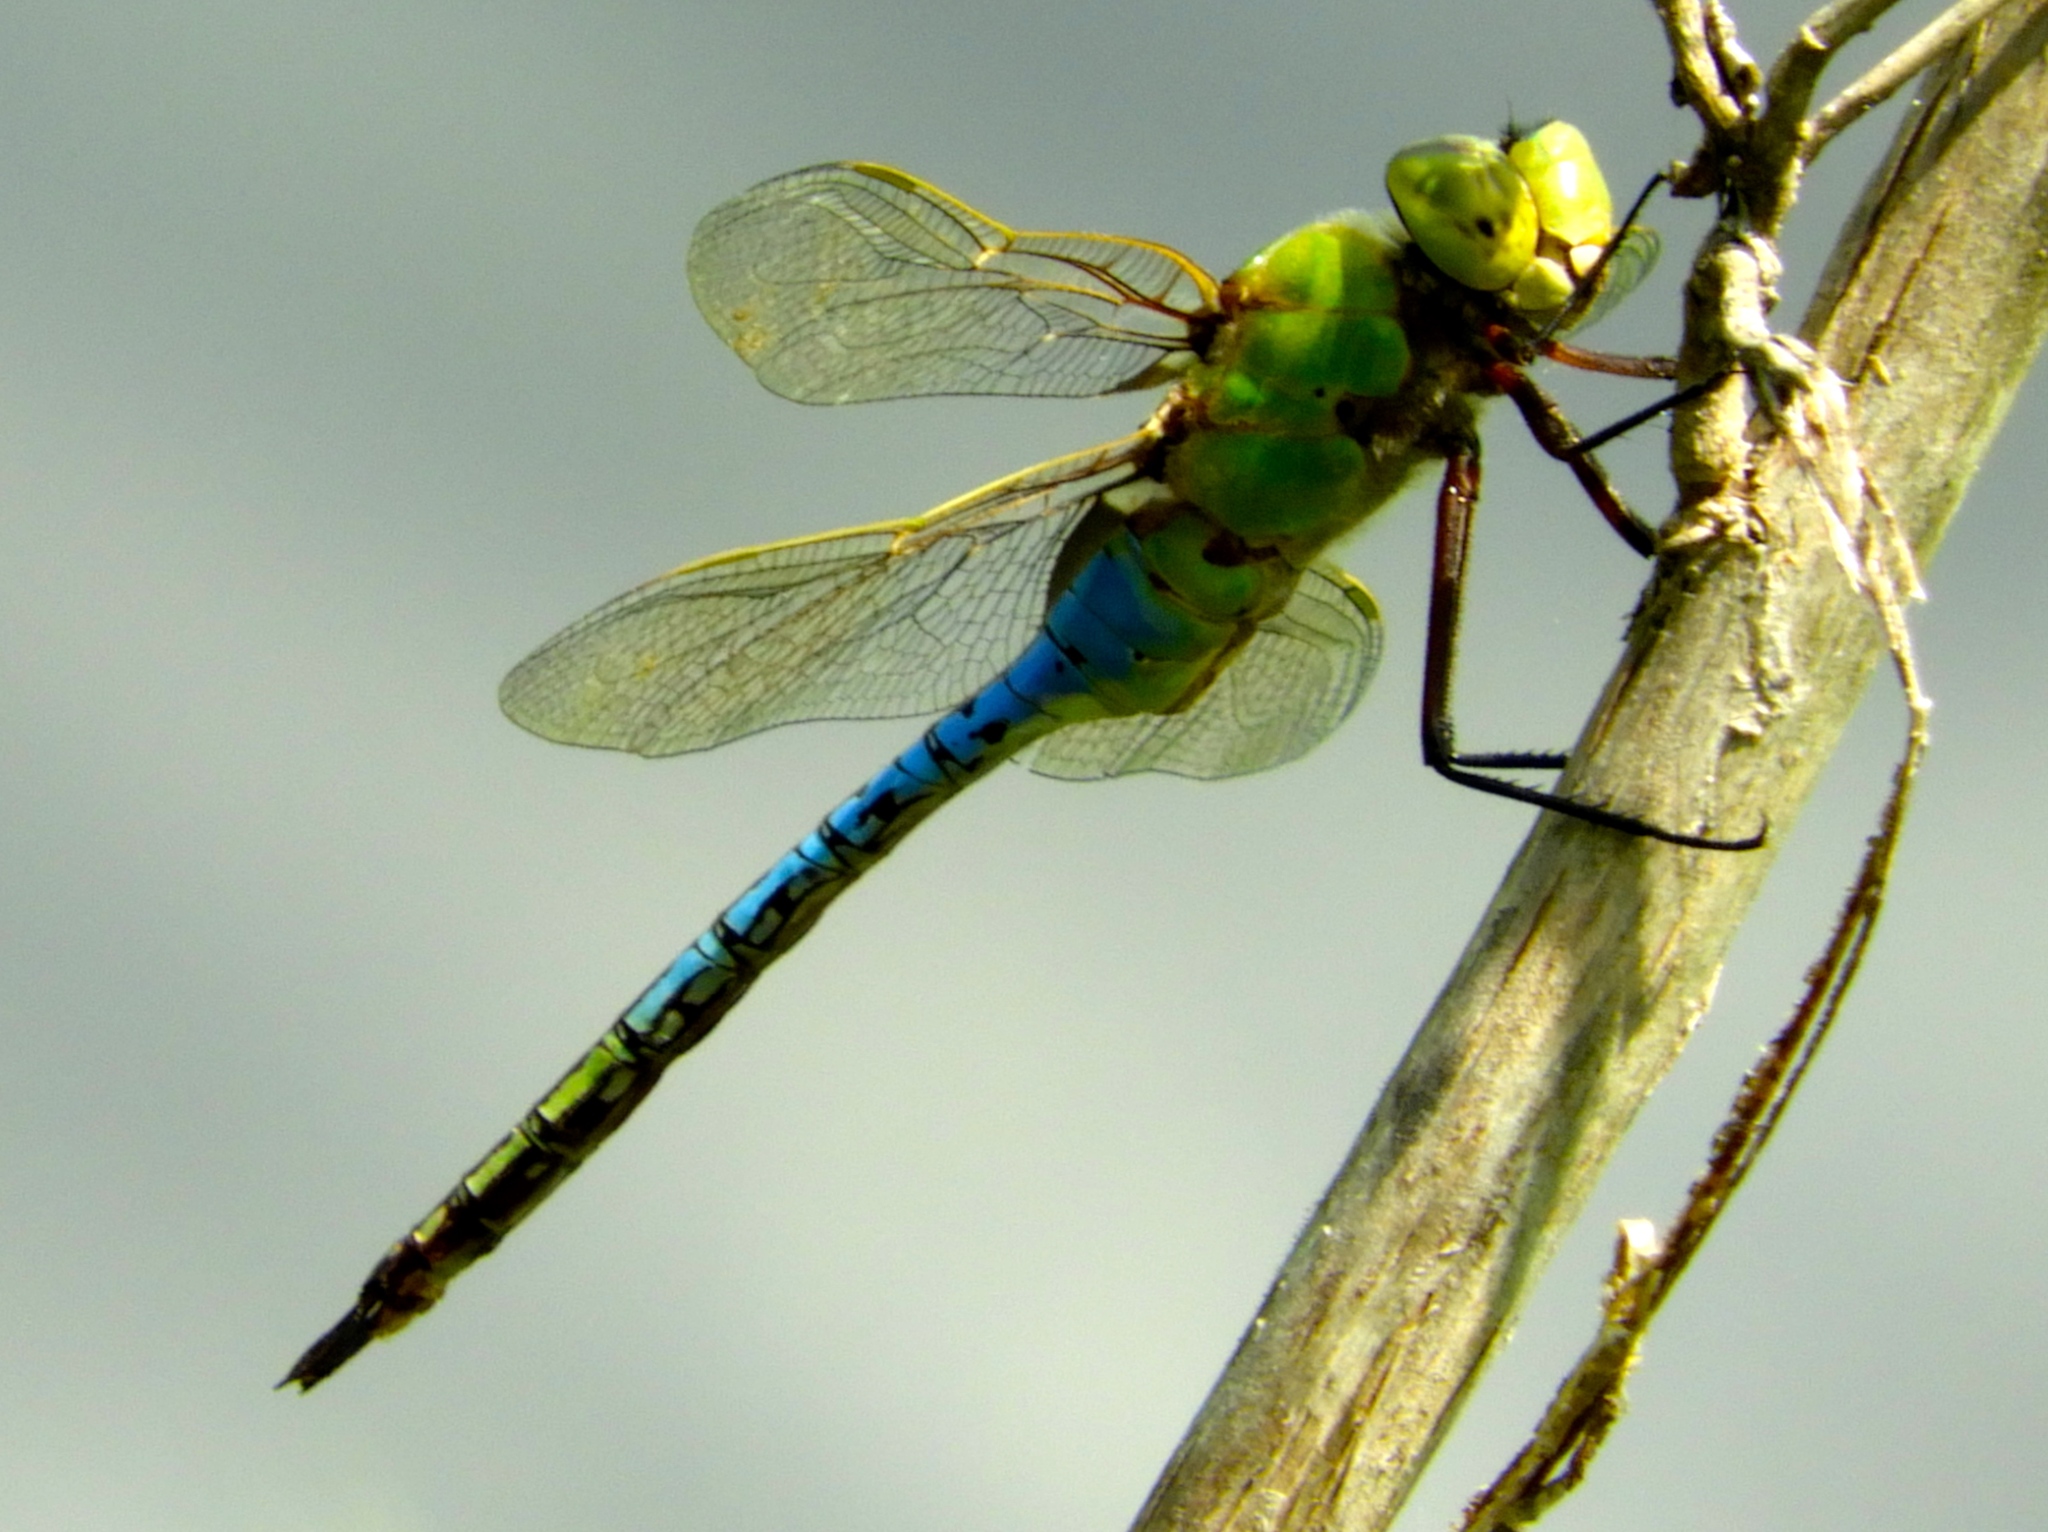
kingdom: Animalia
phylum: Arthropoda
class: Insecta
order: Odonata
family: Aeshnidae
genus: Anax
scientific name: Anax junius
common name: Common green darner
